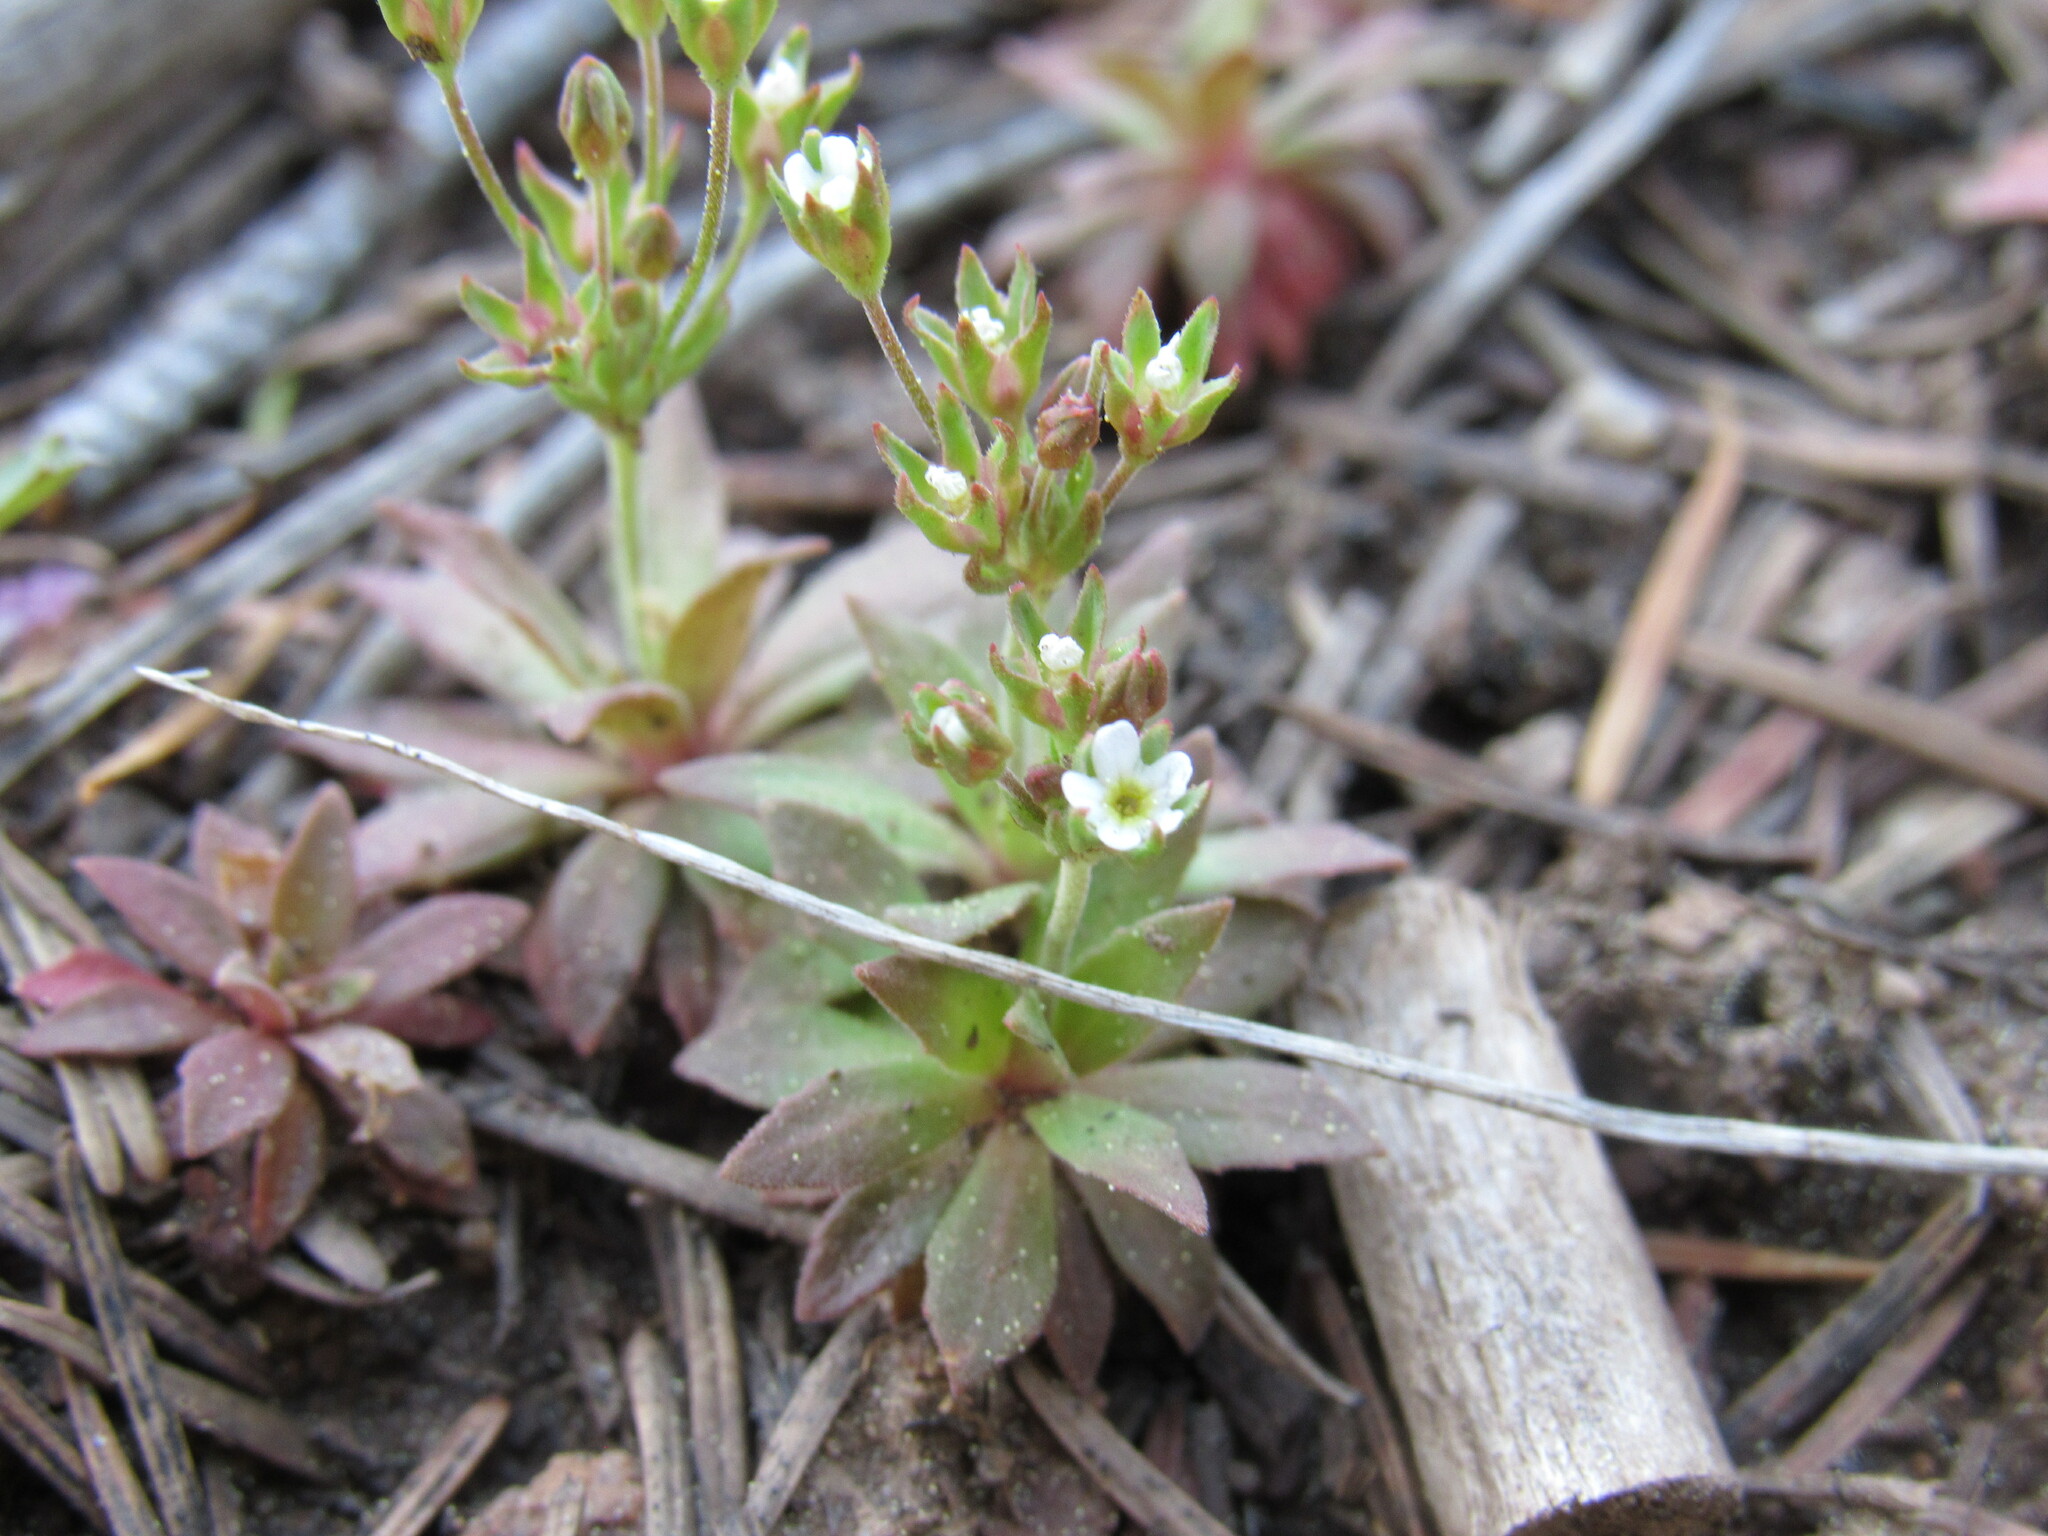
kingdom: Plantae
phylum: Tracheophyta
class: Magnoliopsida
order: Ericales
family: Primulaceae
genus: Androsace
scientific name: Androsace septentrionalis
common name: Hairy northern fairy-candelabra
